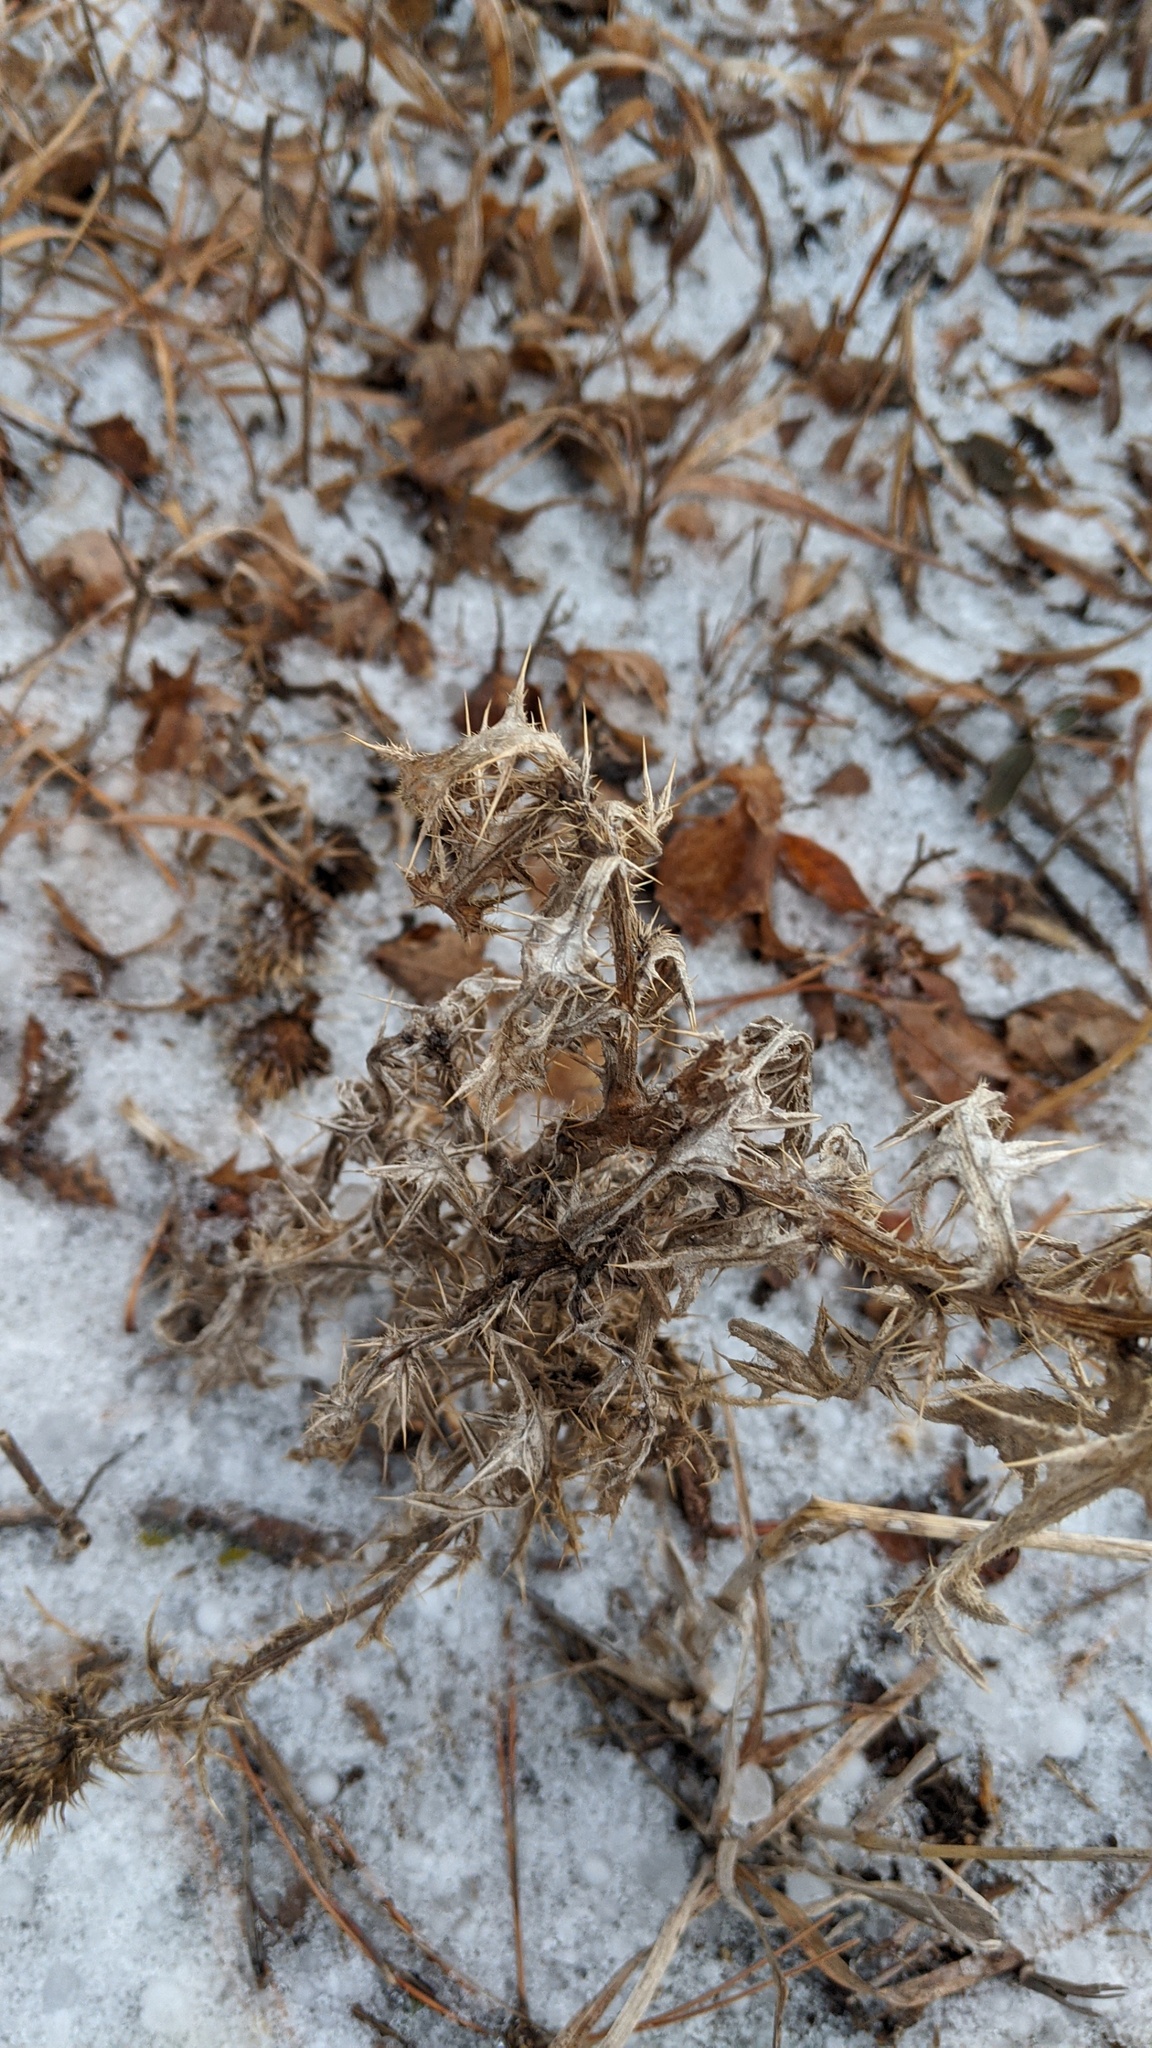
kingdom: Plantae
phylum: Tracheophyta
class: Magnoliopsida
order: Asterales
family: Asteraceae
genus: Cirsium
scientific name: Cirsium arvense
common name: Creeping thistle
